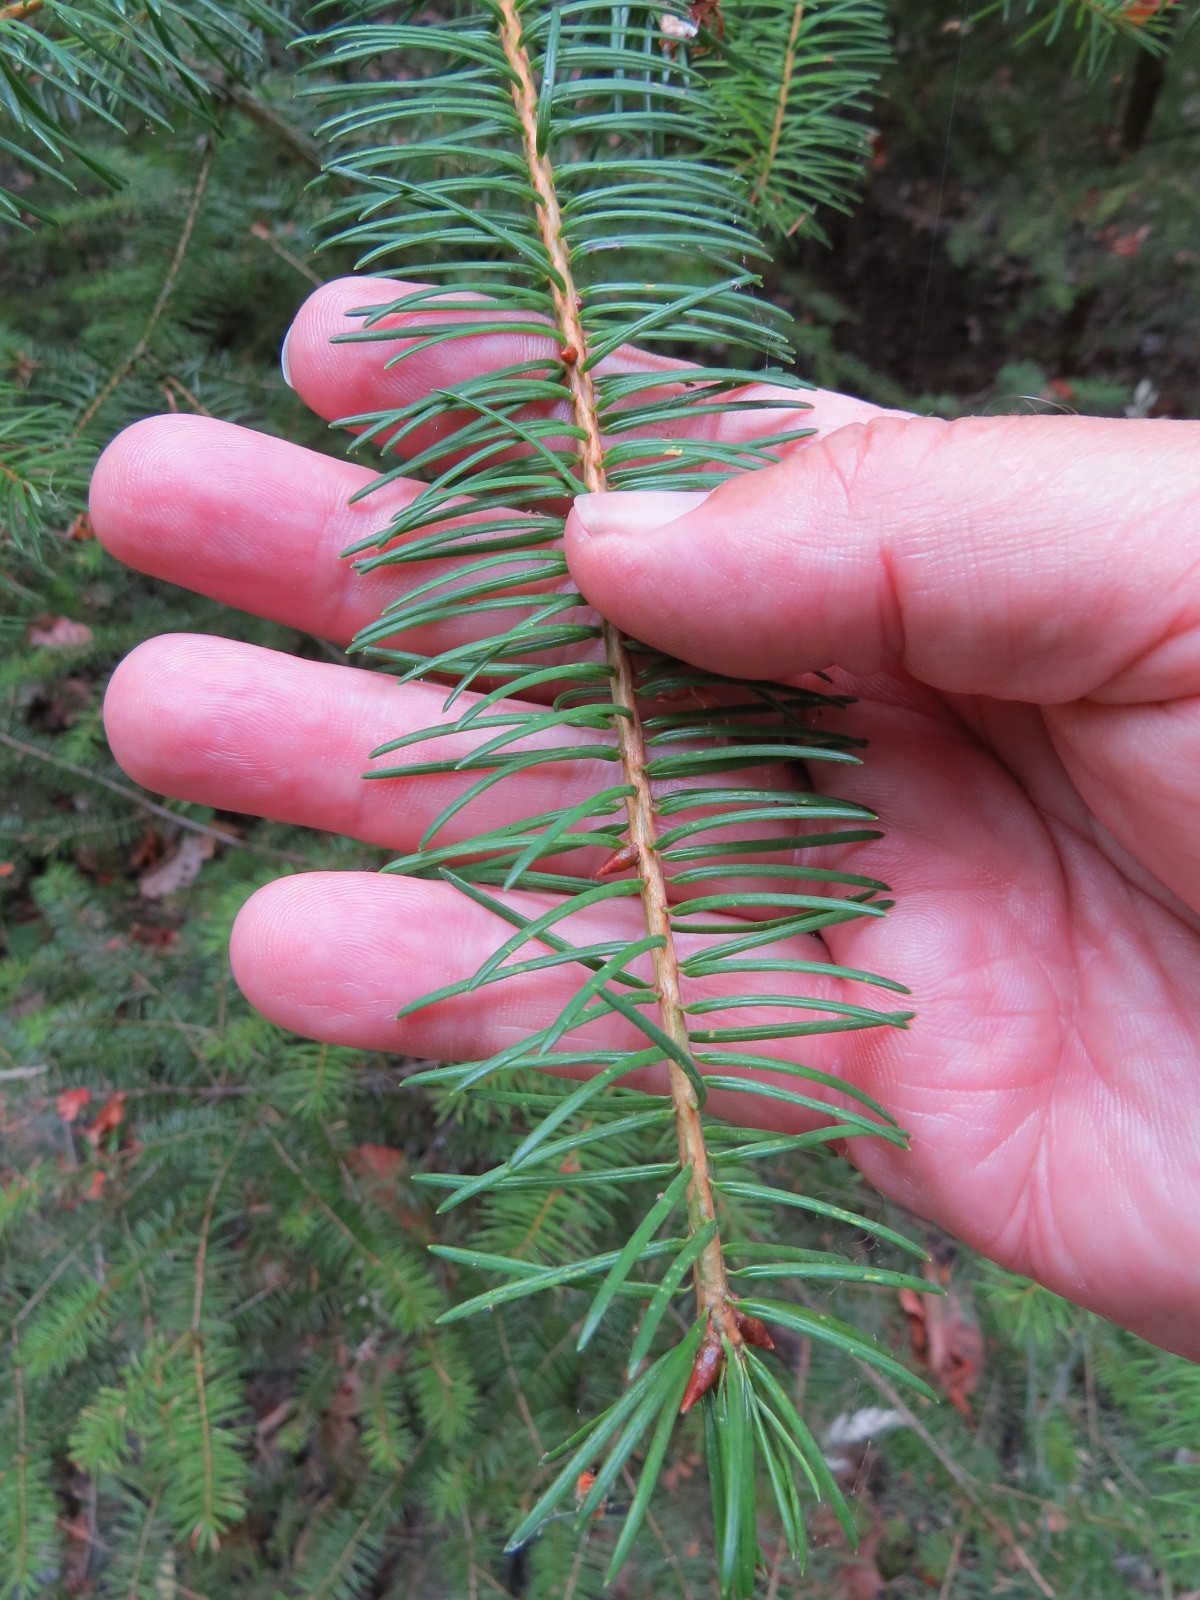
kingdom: Plantae
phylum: Tracheophyta
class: Pinopsida
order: Pinales
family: Pinaceae
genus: Pseudotsuga
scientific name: Pseudotsuga menziesii
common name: Douglas fir
